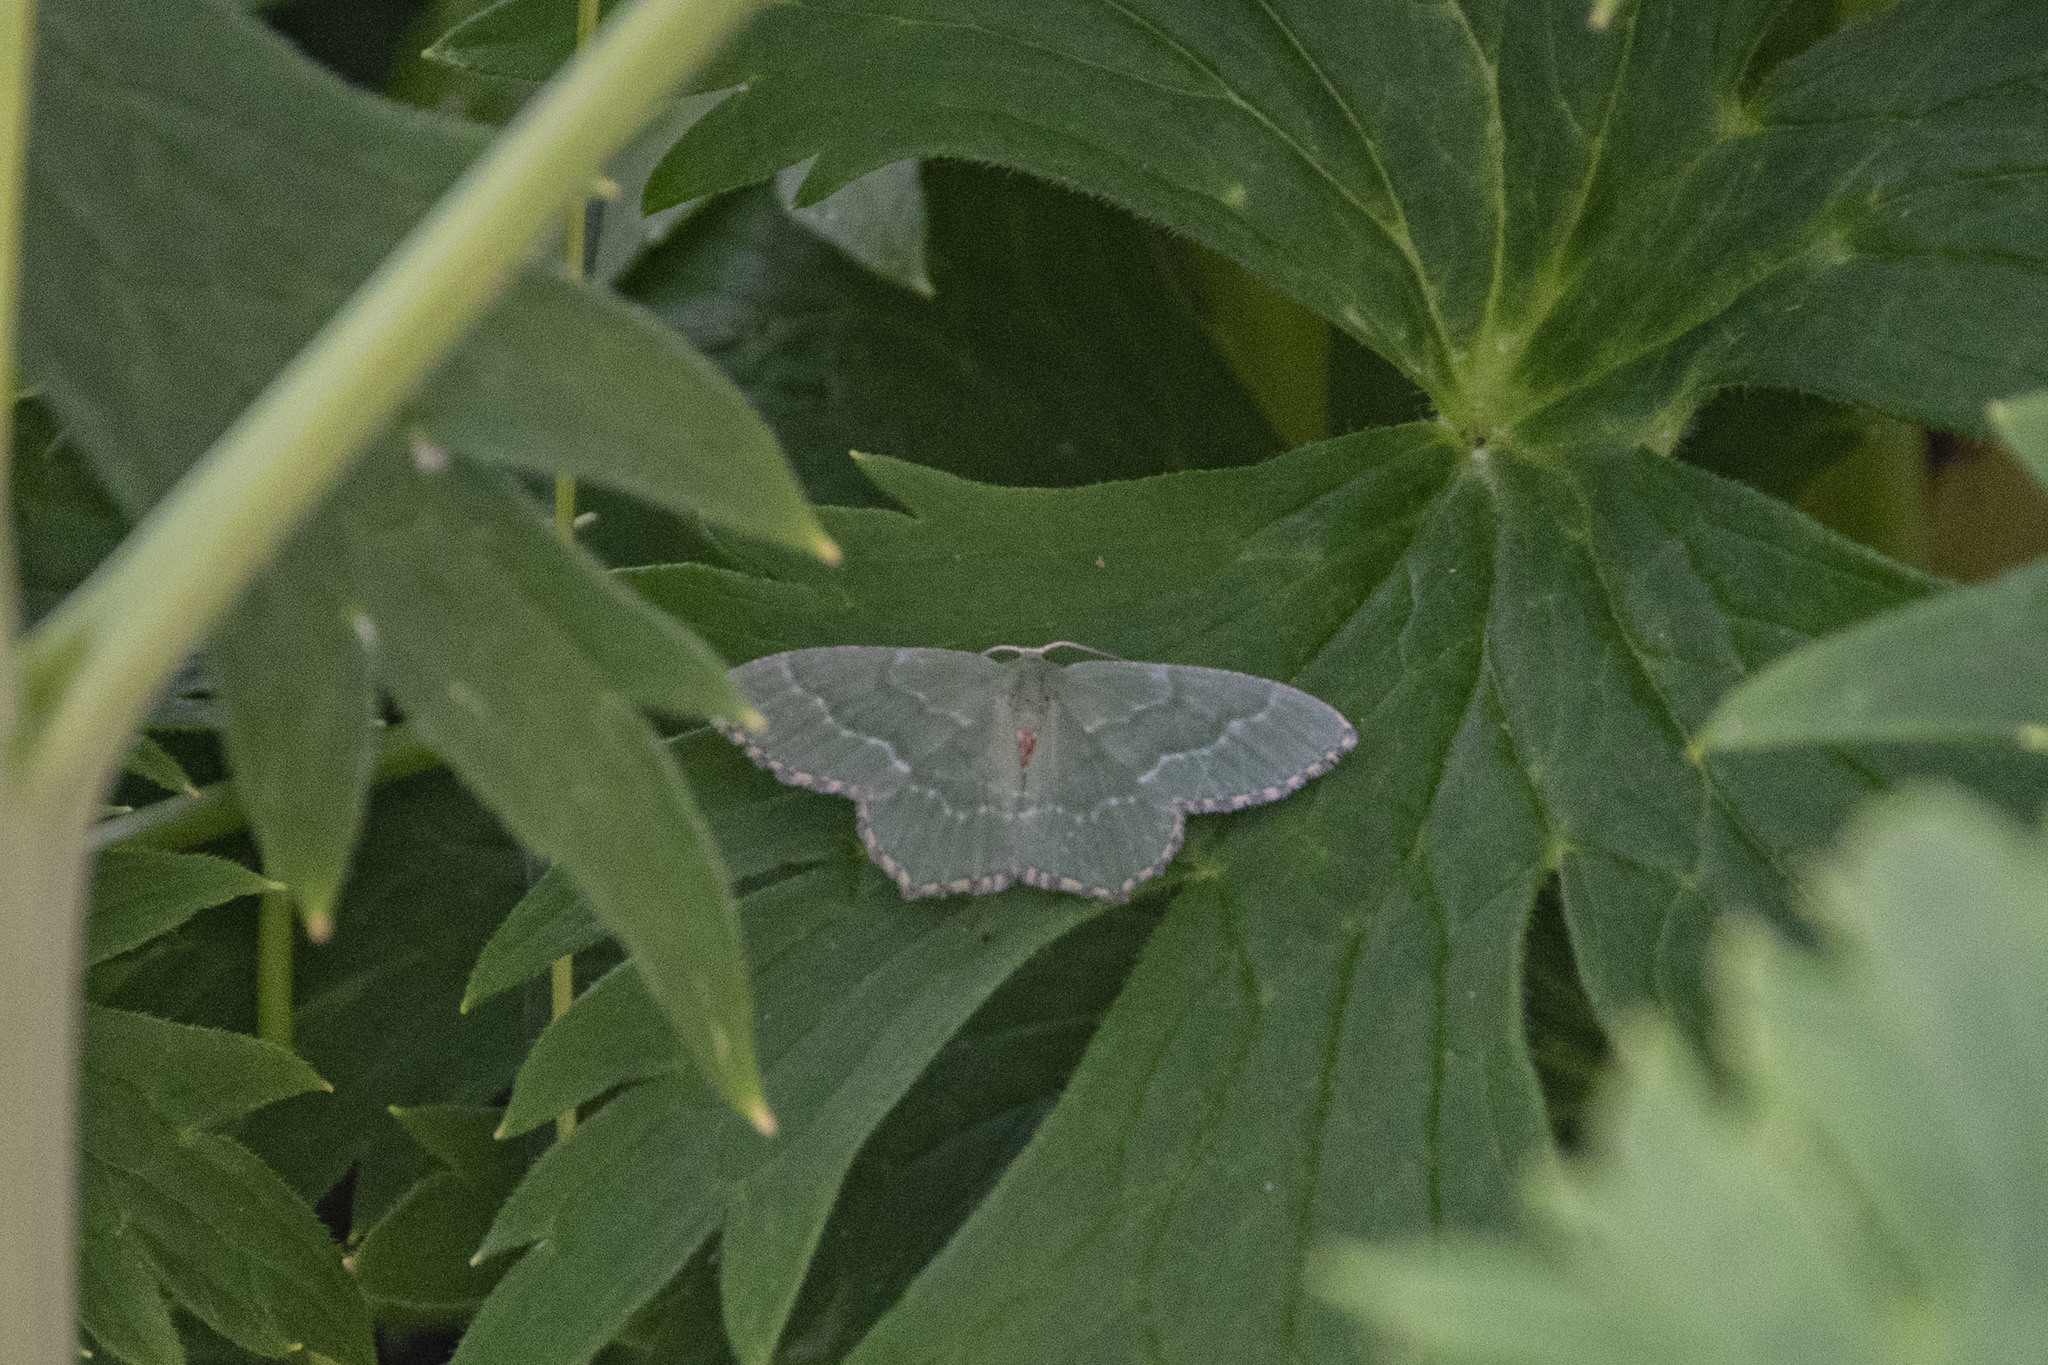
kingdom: Animalia
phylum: Arthropoda
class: Insecta
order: Lepidoptera
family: Geometridae
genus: Hemithea
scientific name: Hemithea aestivaria
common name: Common emerald
